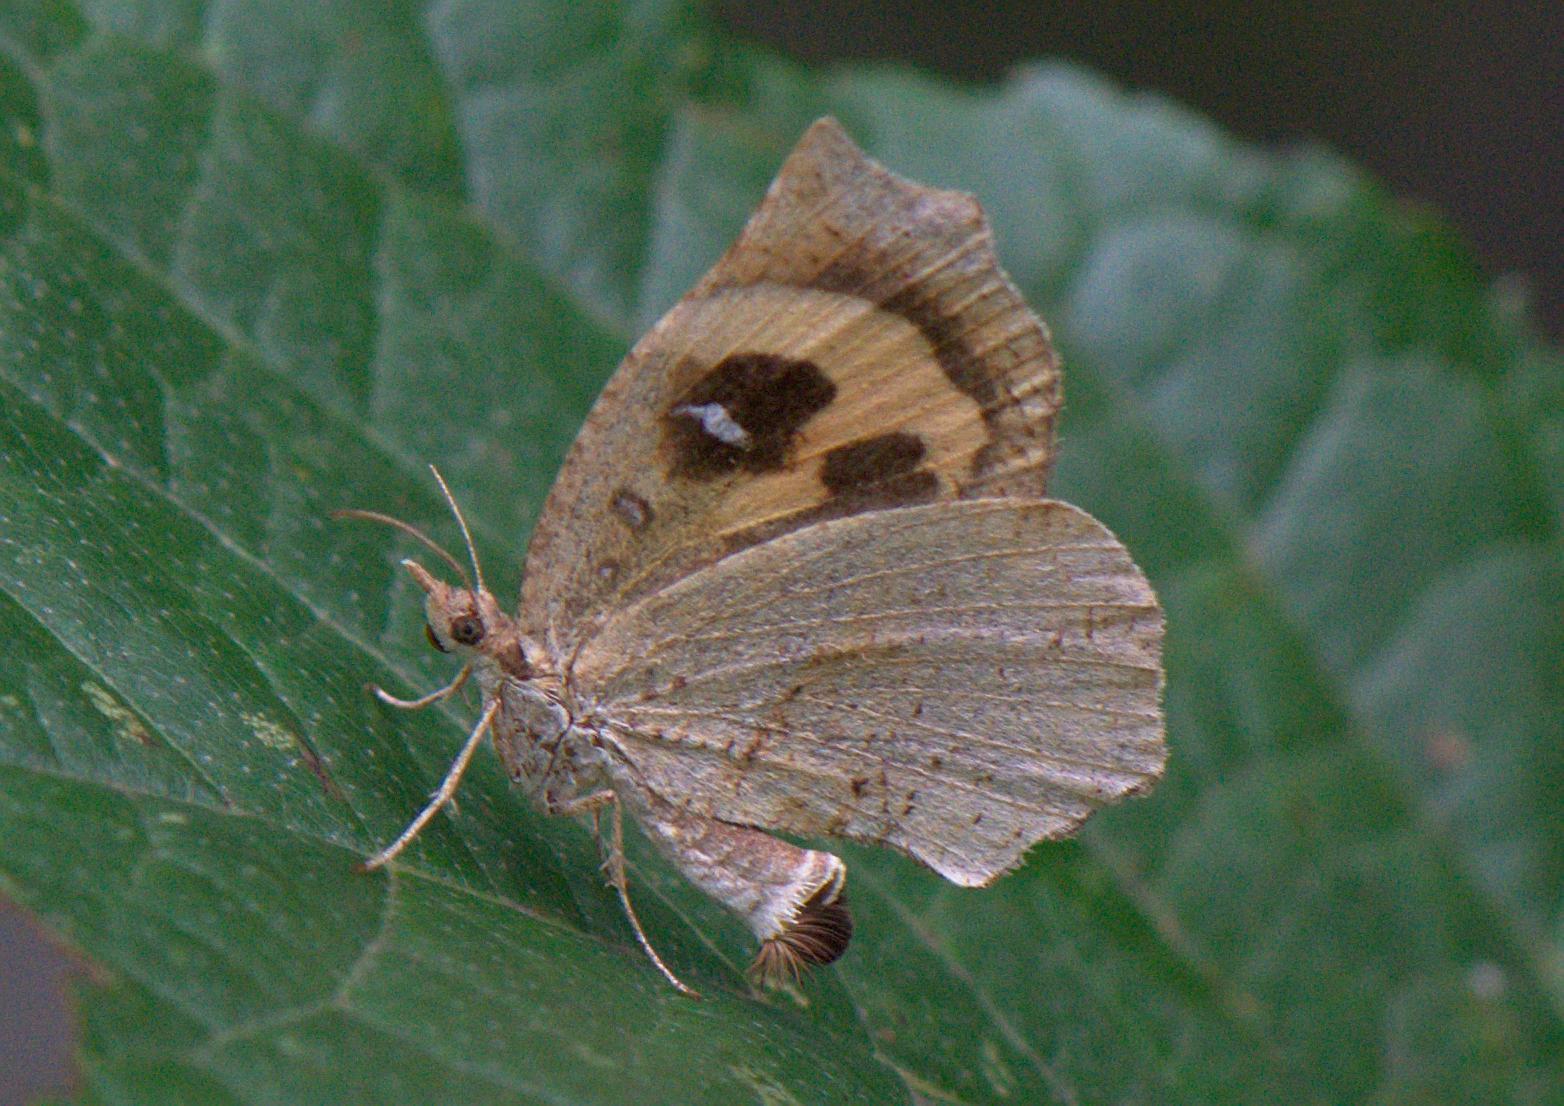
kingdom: Animalia
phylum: Arthropoda
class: Insecta
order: Lepidoptera
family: Callidulidae
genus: Pterodecta
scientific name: Pterodecta anchora
